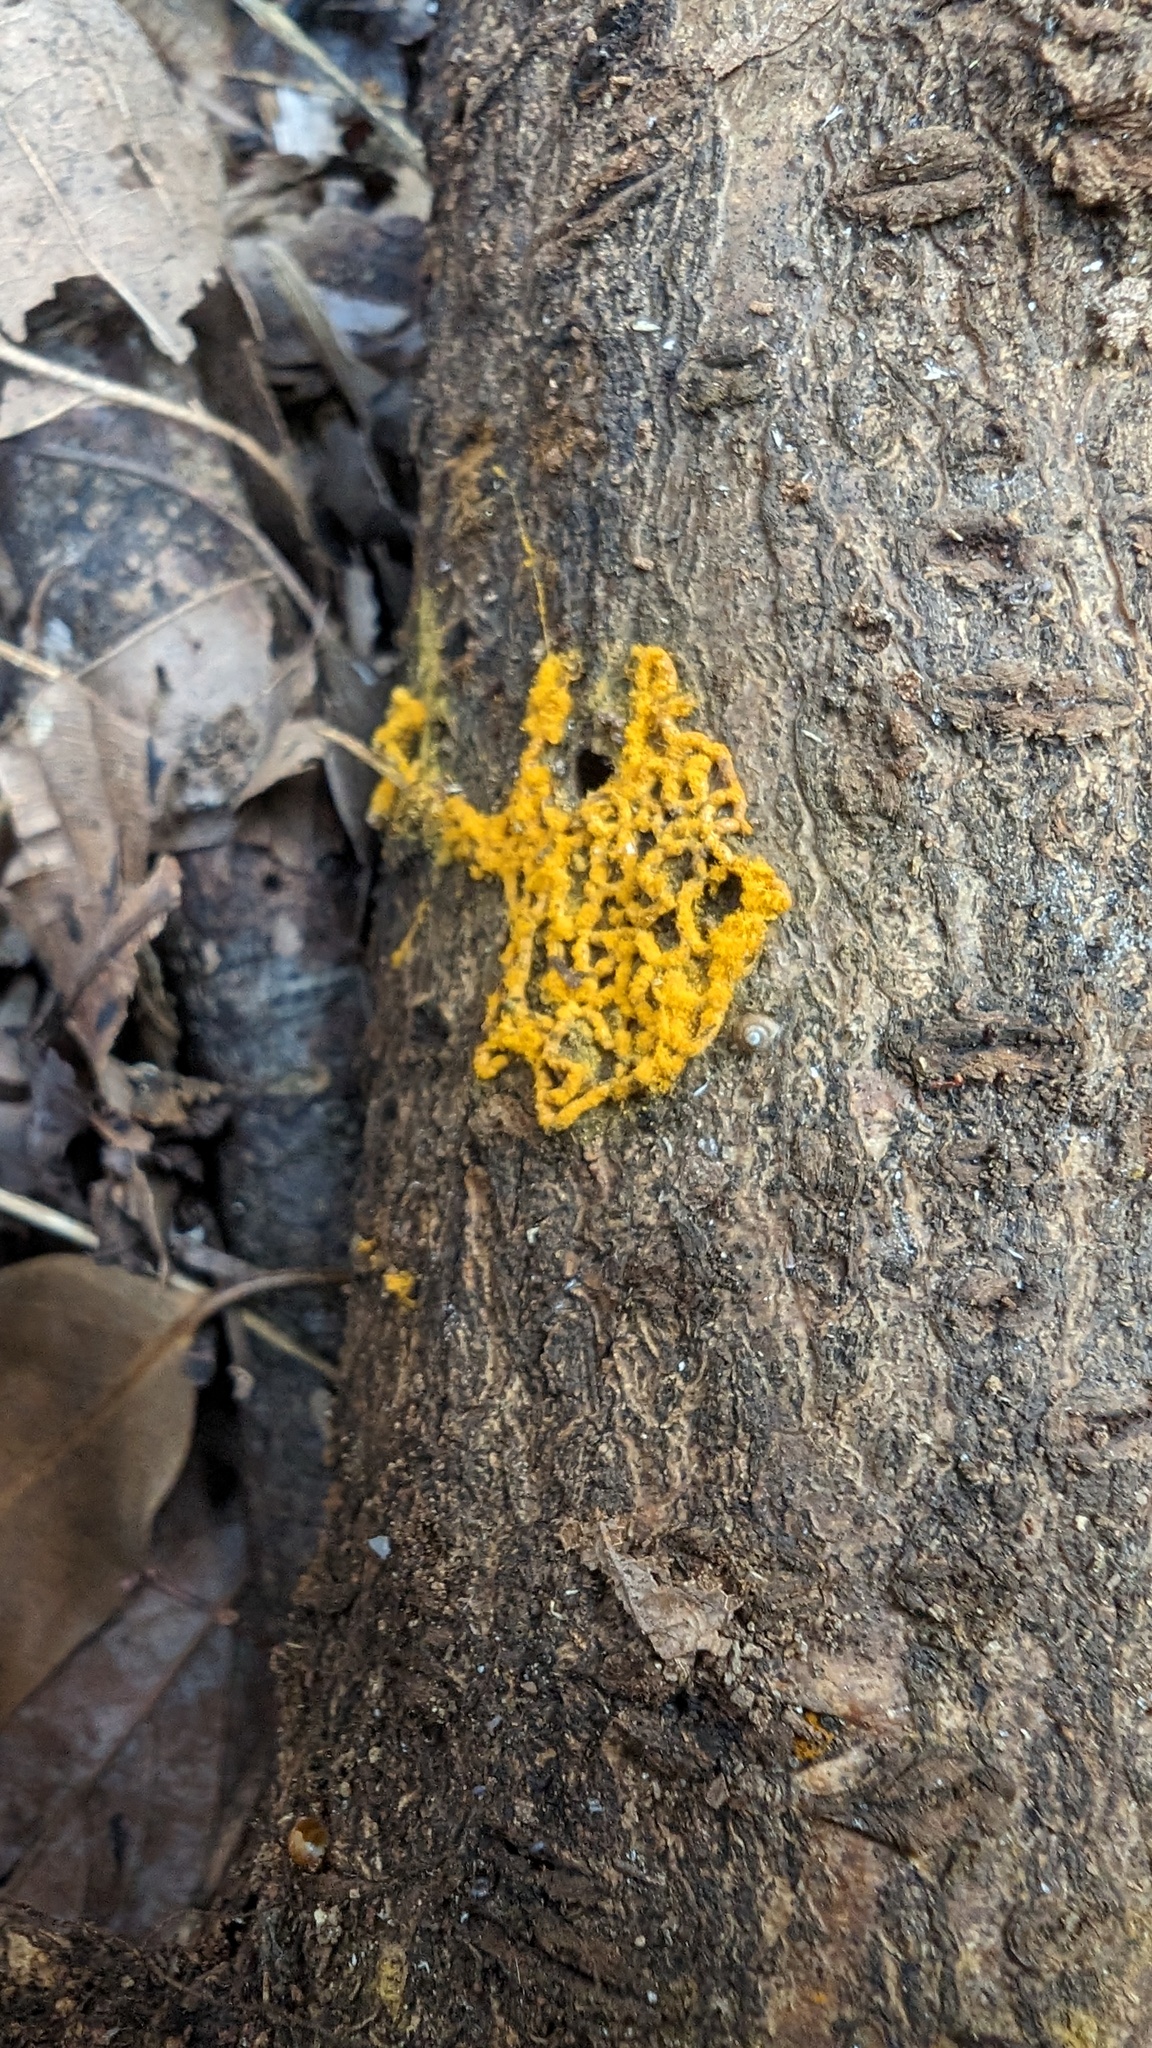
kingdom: Protozoa
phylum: Mycetozoa
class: Myxomycetes
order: Trichiales
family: Arcyriaceae
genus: Hemitrichia
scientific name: Hemitrichia serpula
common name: Pretzel slime mold
